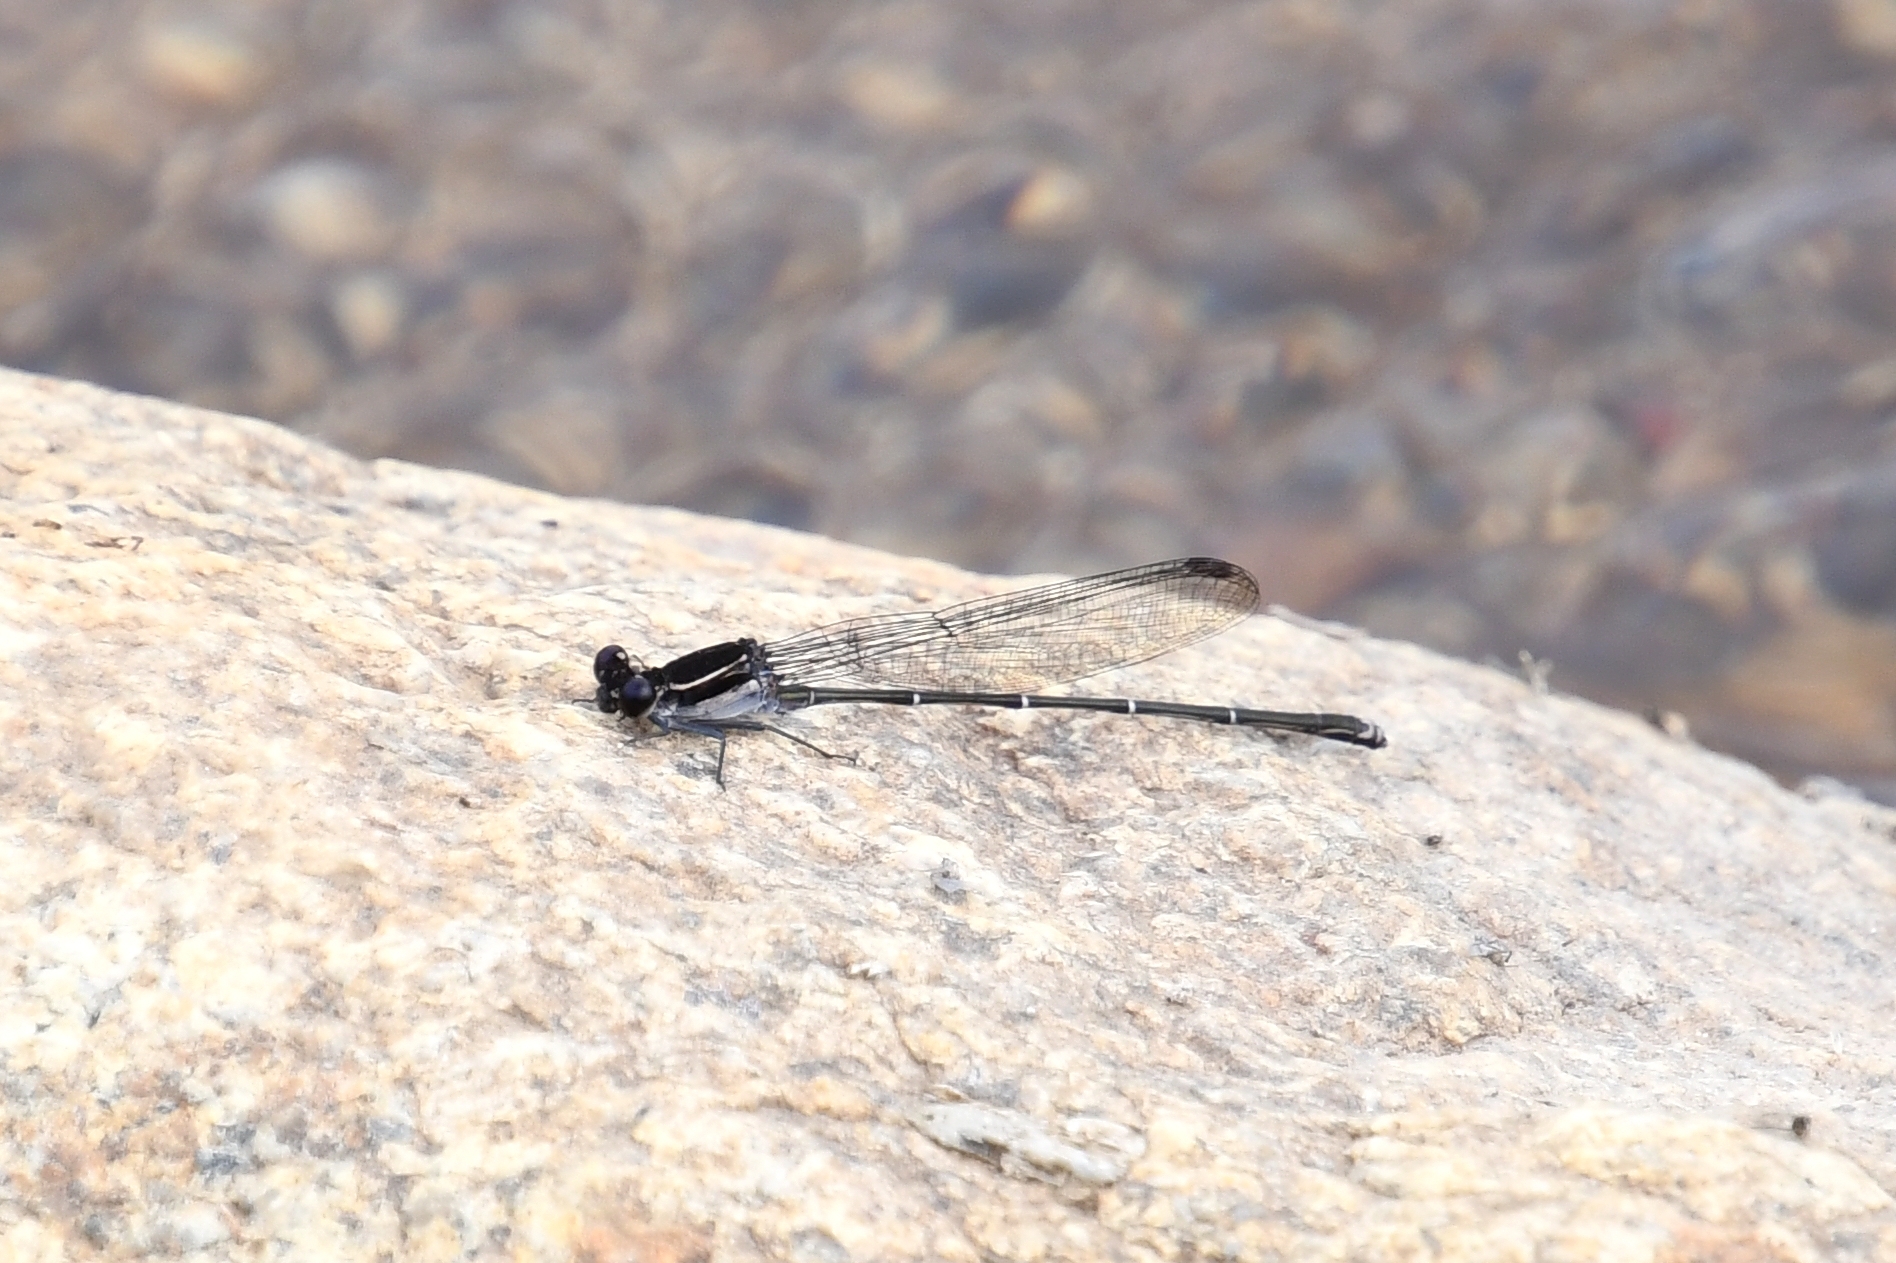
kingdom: Animalia
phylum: Arthropoda
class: Insecta
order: Odonata
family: Coenagrionidae
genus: Argia
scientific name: Argia tezpi
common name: Tezpi dancer
